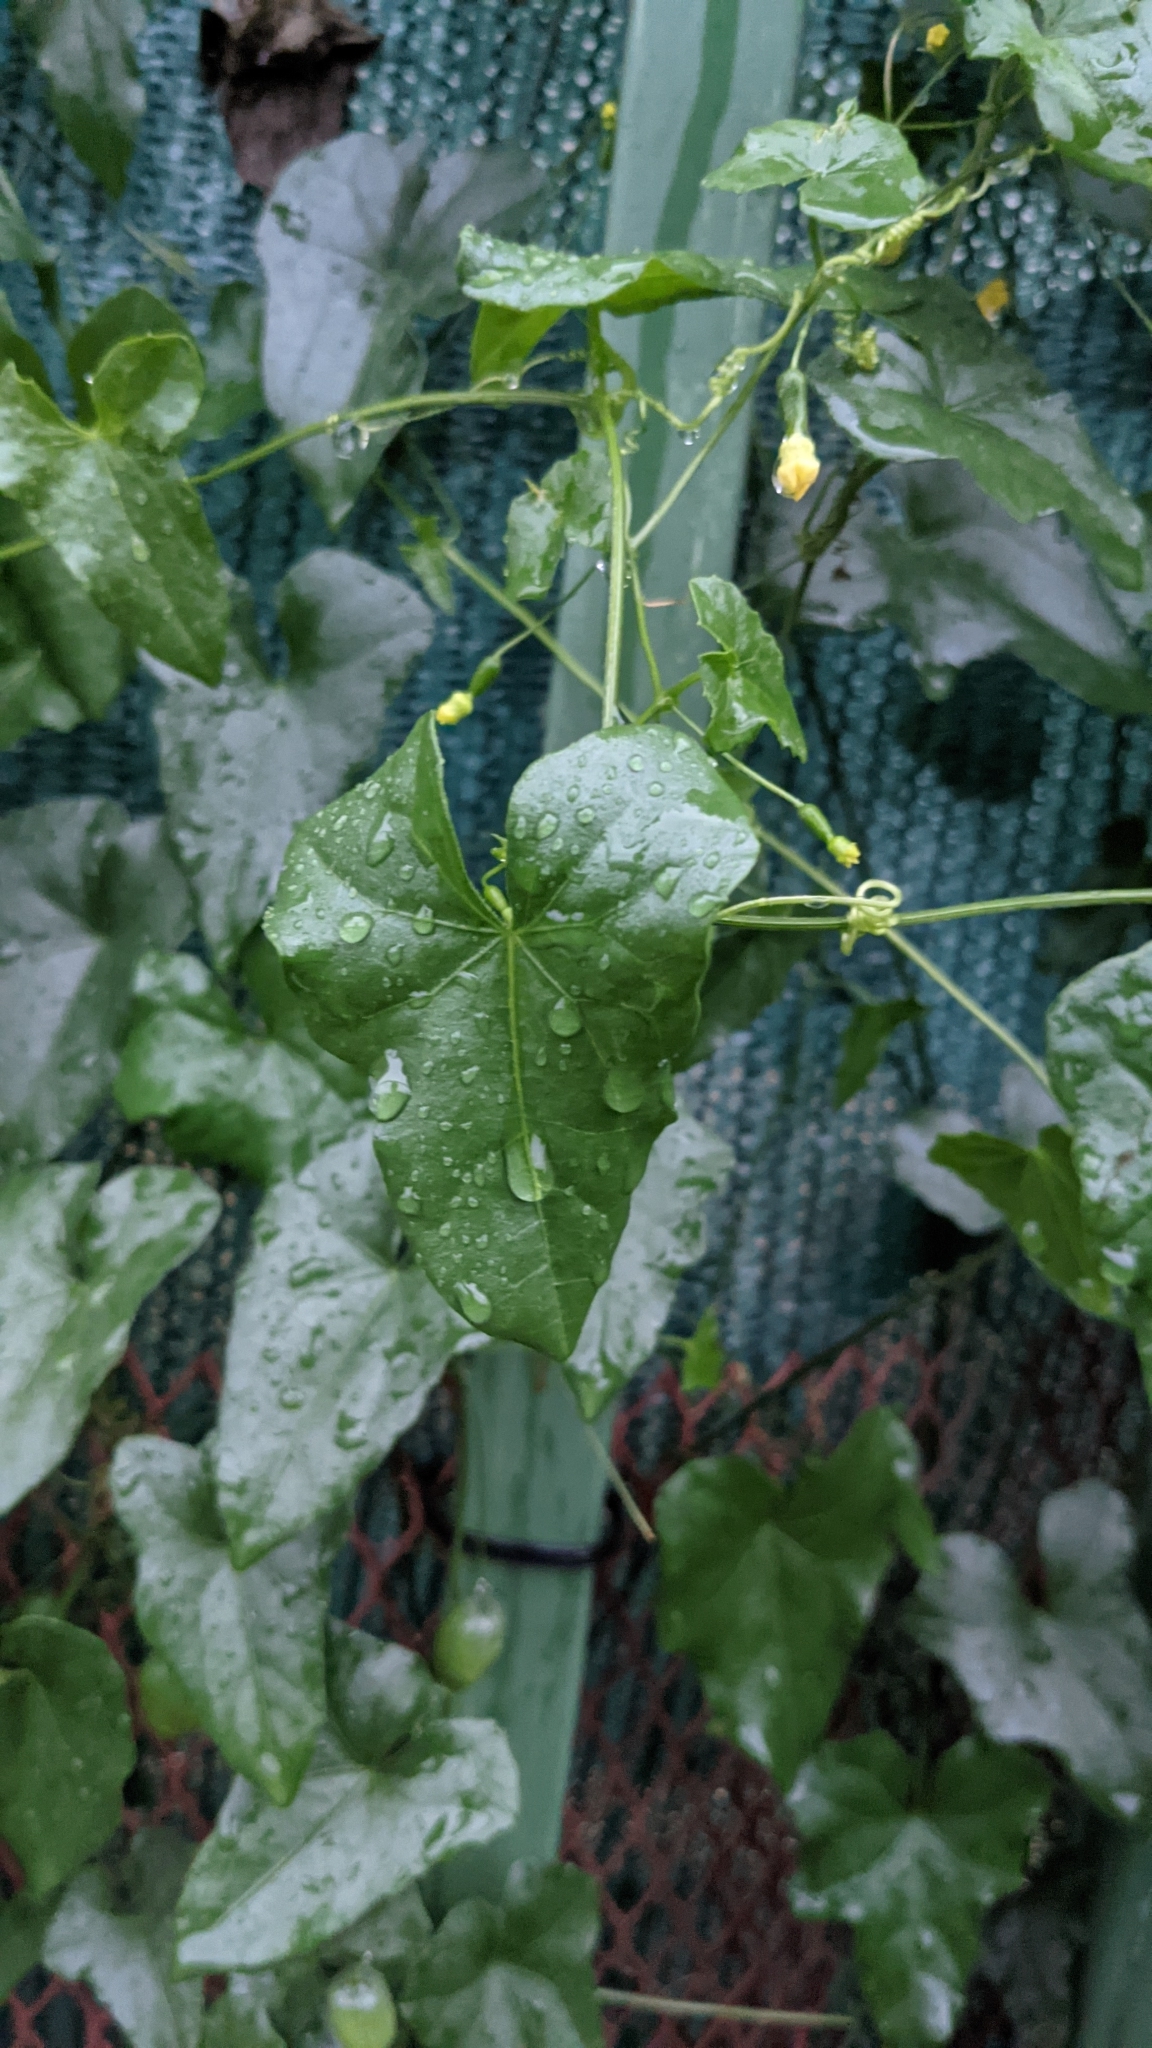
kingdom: Plantae
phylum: Tracheophyta
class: Magnoliopsida
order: Cucurbitales
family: Cucurbitaceae
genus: Melothria
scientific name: Melothria pendula
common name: Creeping-cucumber
